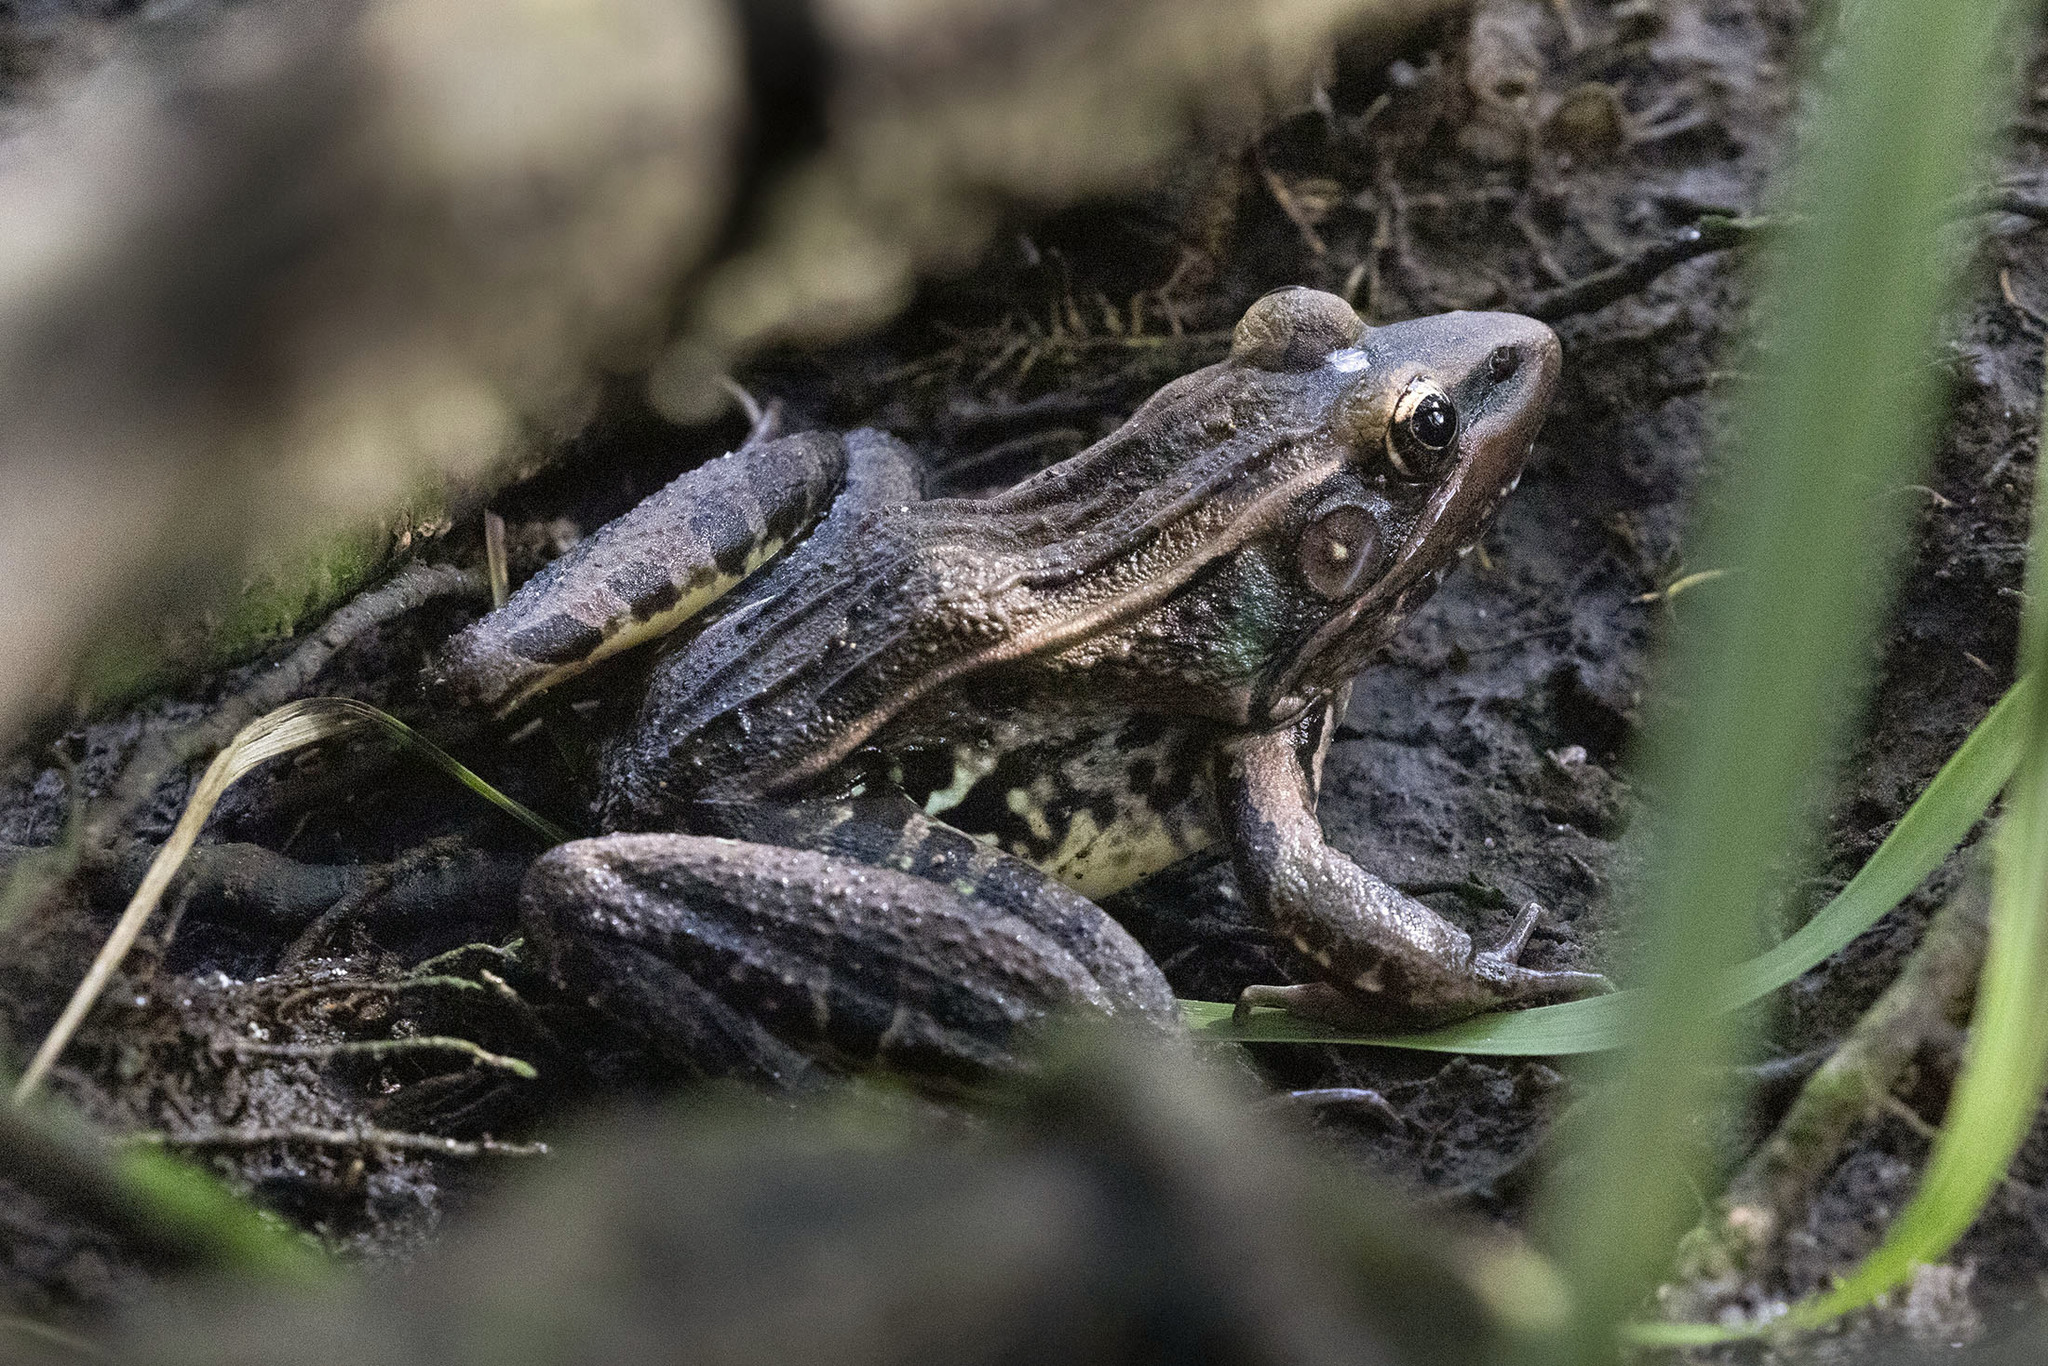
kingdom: Animalia
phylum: Chordata
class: Amphibia
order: Anura
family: Ranidae
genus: Lithobates
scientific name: Lithobates sphenocephalus
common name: Southern leopard frog
